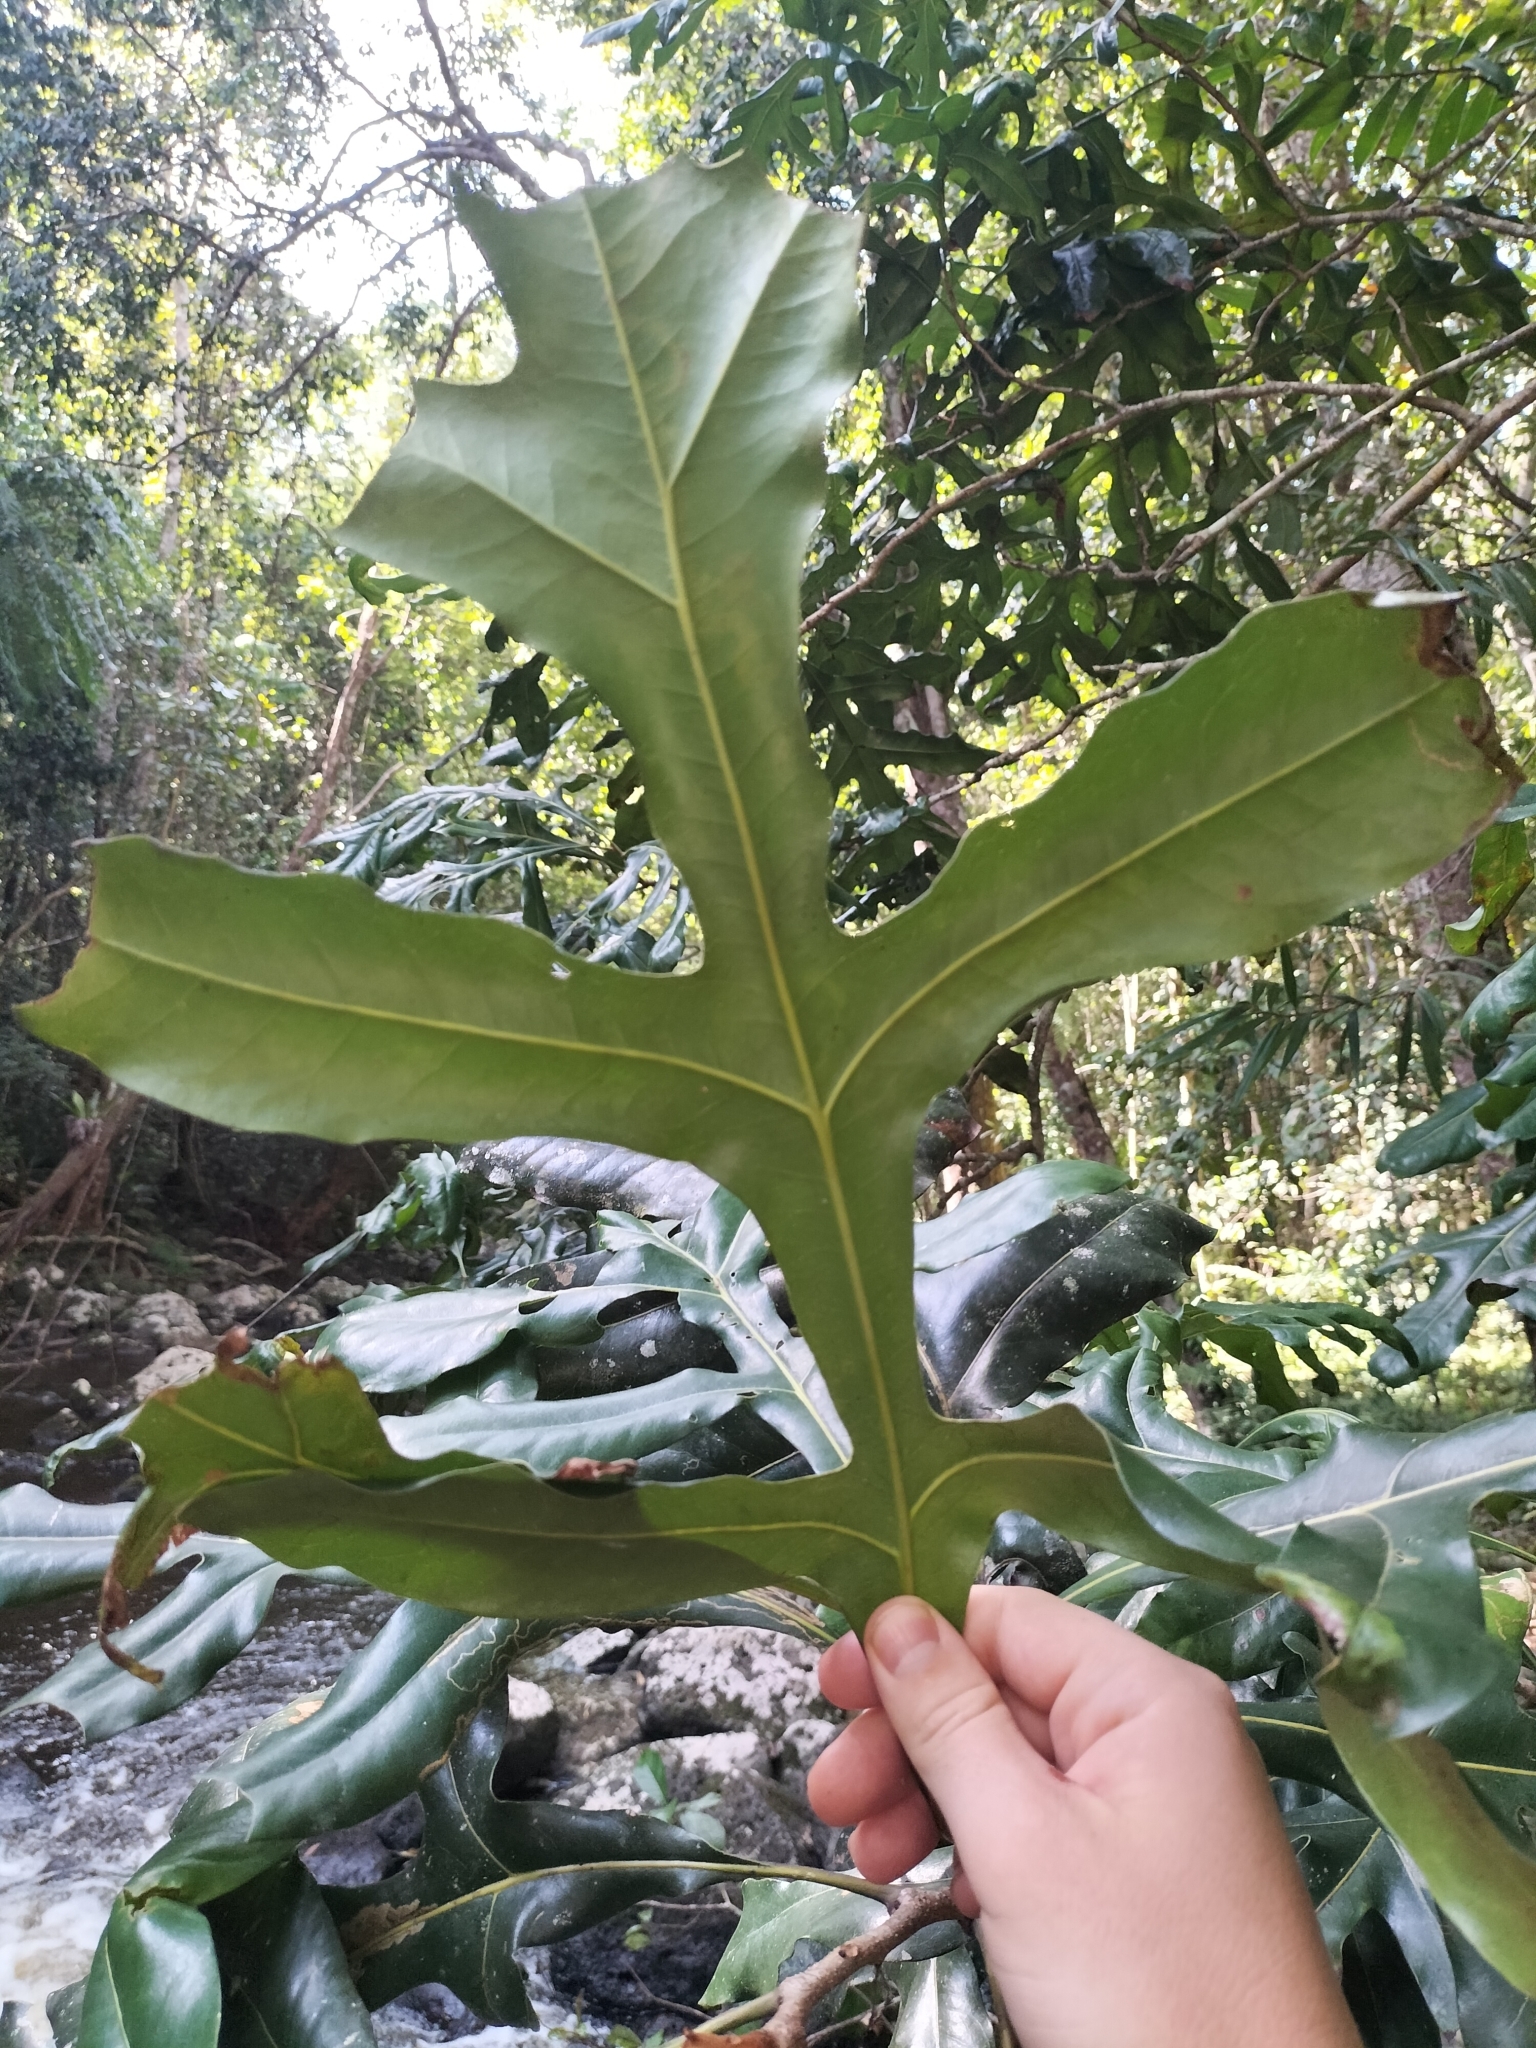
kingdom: Plantae
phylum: Tracheophyta
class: Magnoliopsida
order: Proteales
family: Proteaceae
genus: Stenocarpus
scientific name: Stenocarpus sinuatus
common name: Queensland fire-wheel-tree
